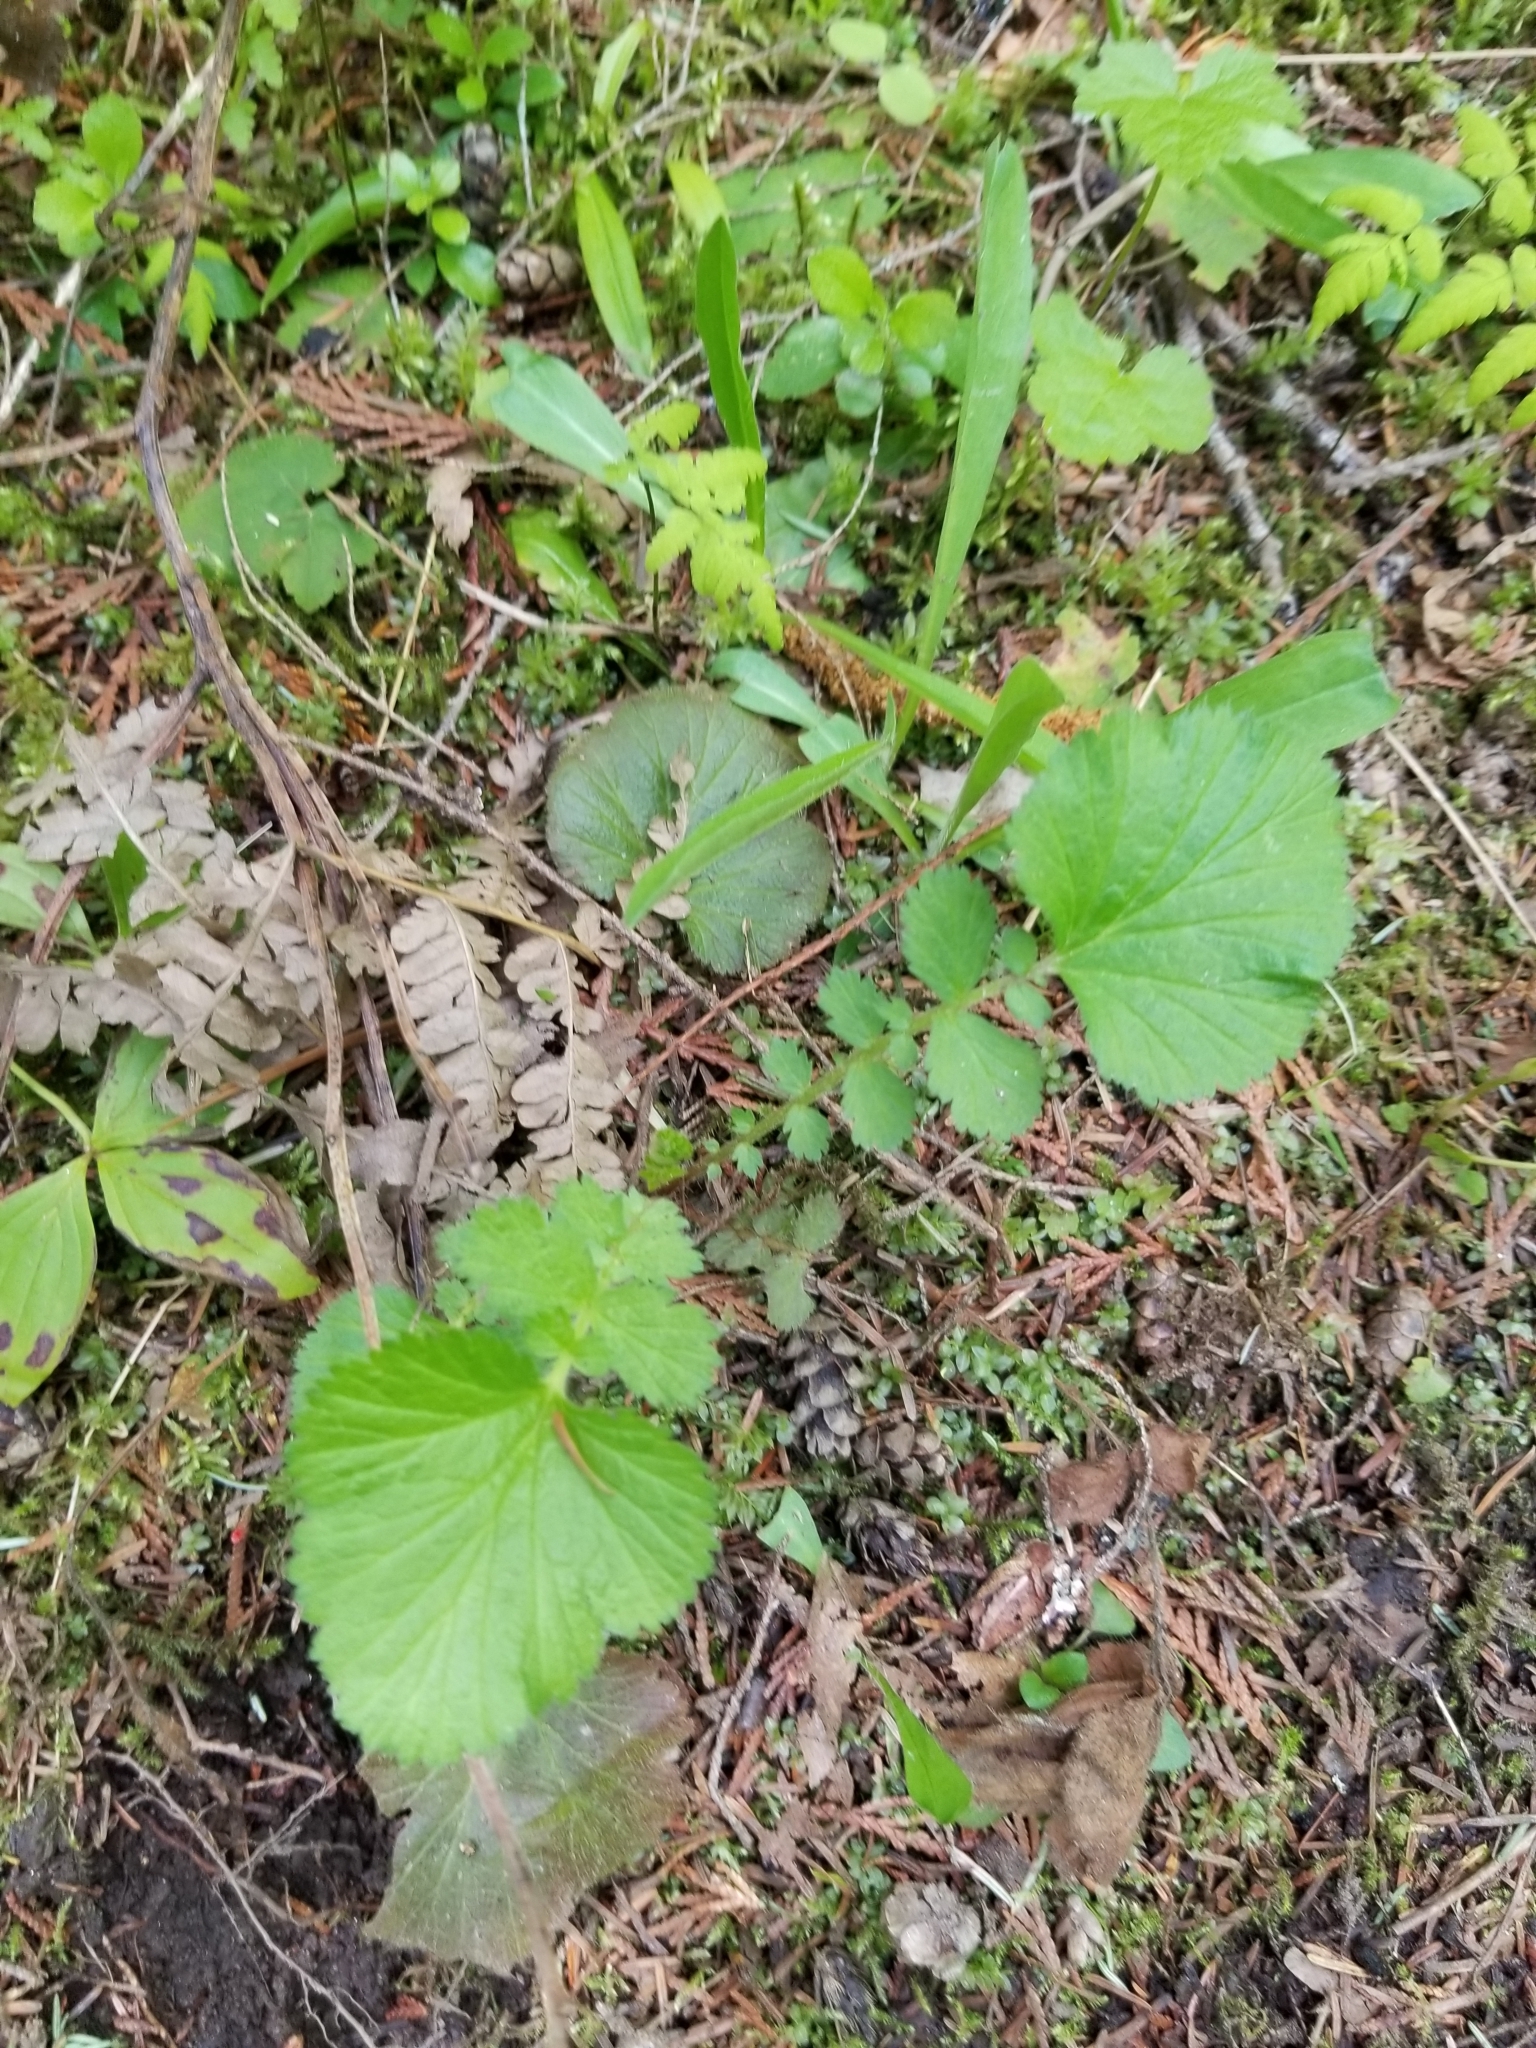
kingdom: Plantae
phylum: Tracheophyta
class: Magnoliopsida
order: Rosales
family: Rosaceae
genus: Geum
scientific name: Geum macrophyllum
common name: Large-leaved avens
